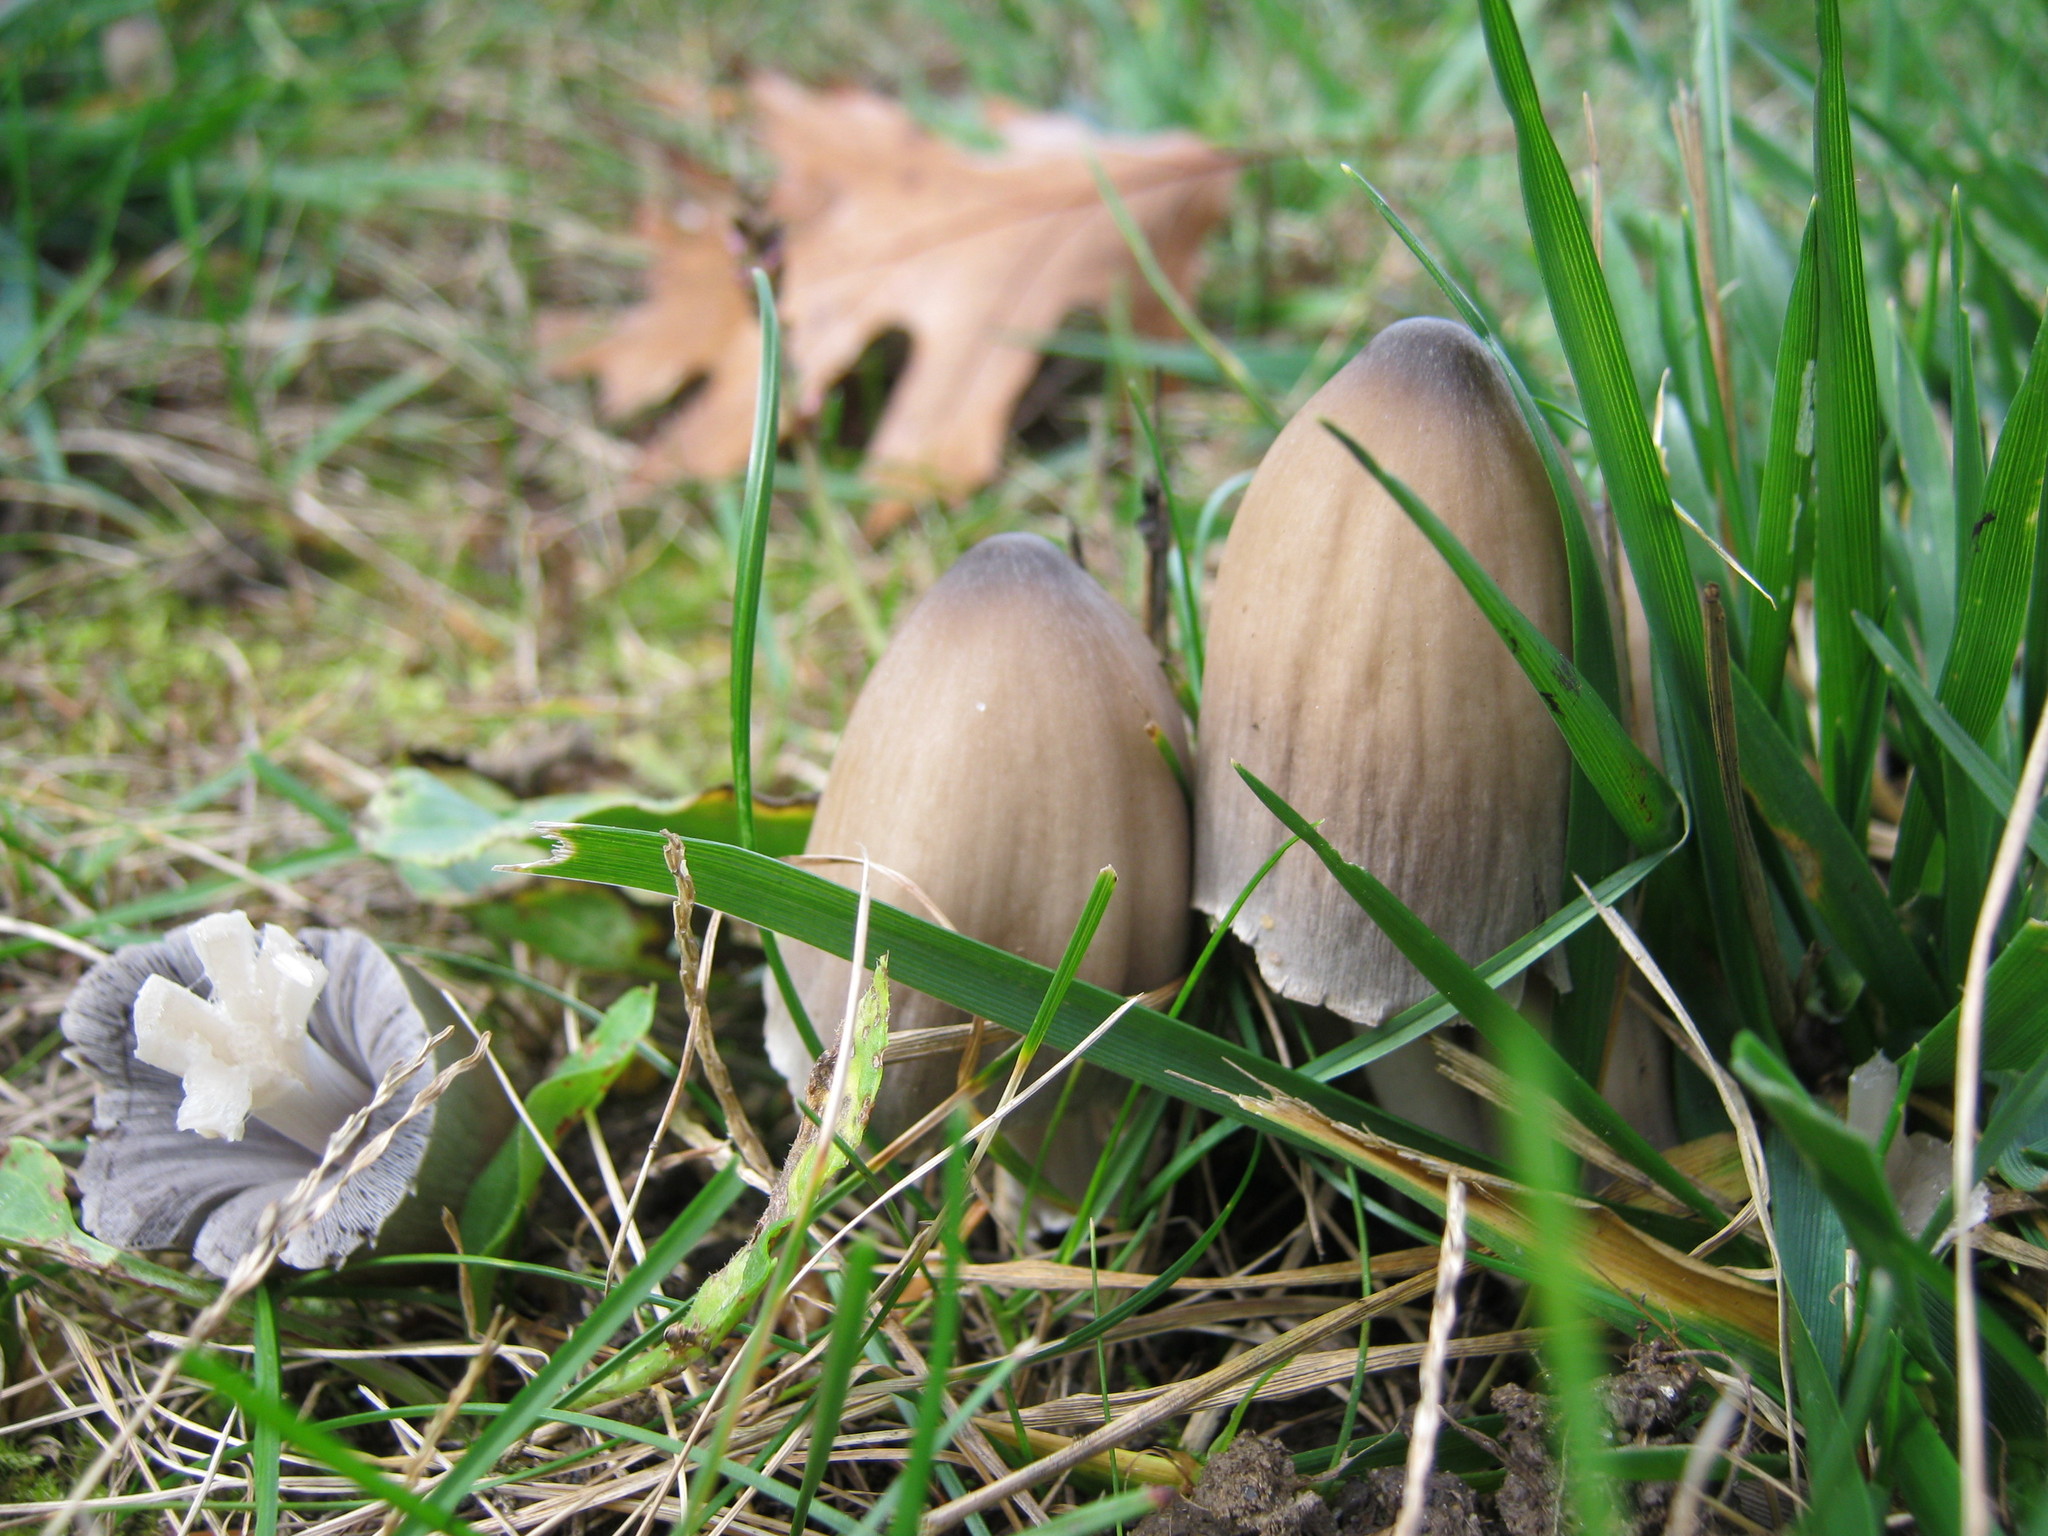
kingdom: Fungi
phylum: Basidiomycota
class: Agaricomycetes
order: Agaricales
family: Psathyrellaceae
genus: Coprinopsis
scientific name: Coprinopsis atramentaria
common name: Common ink-cap
